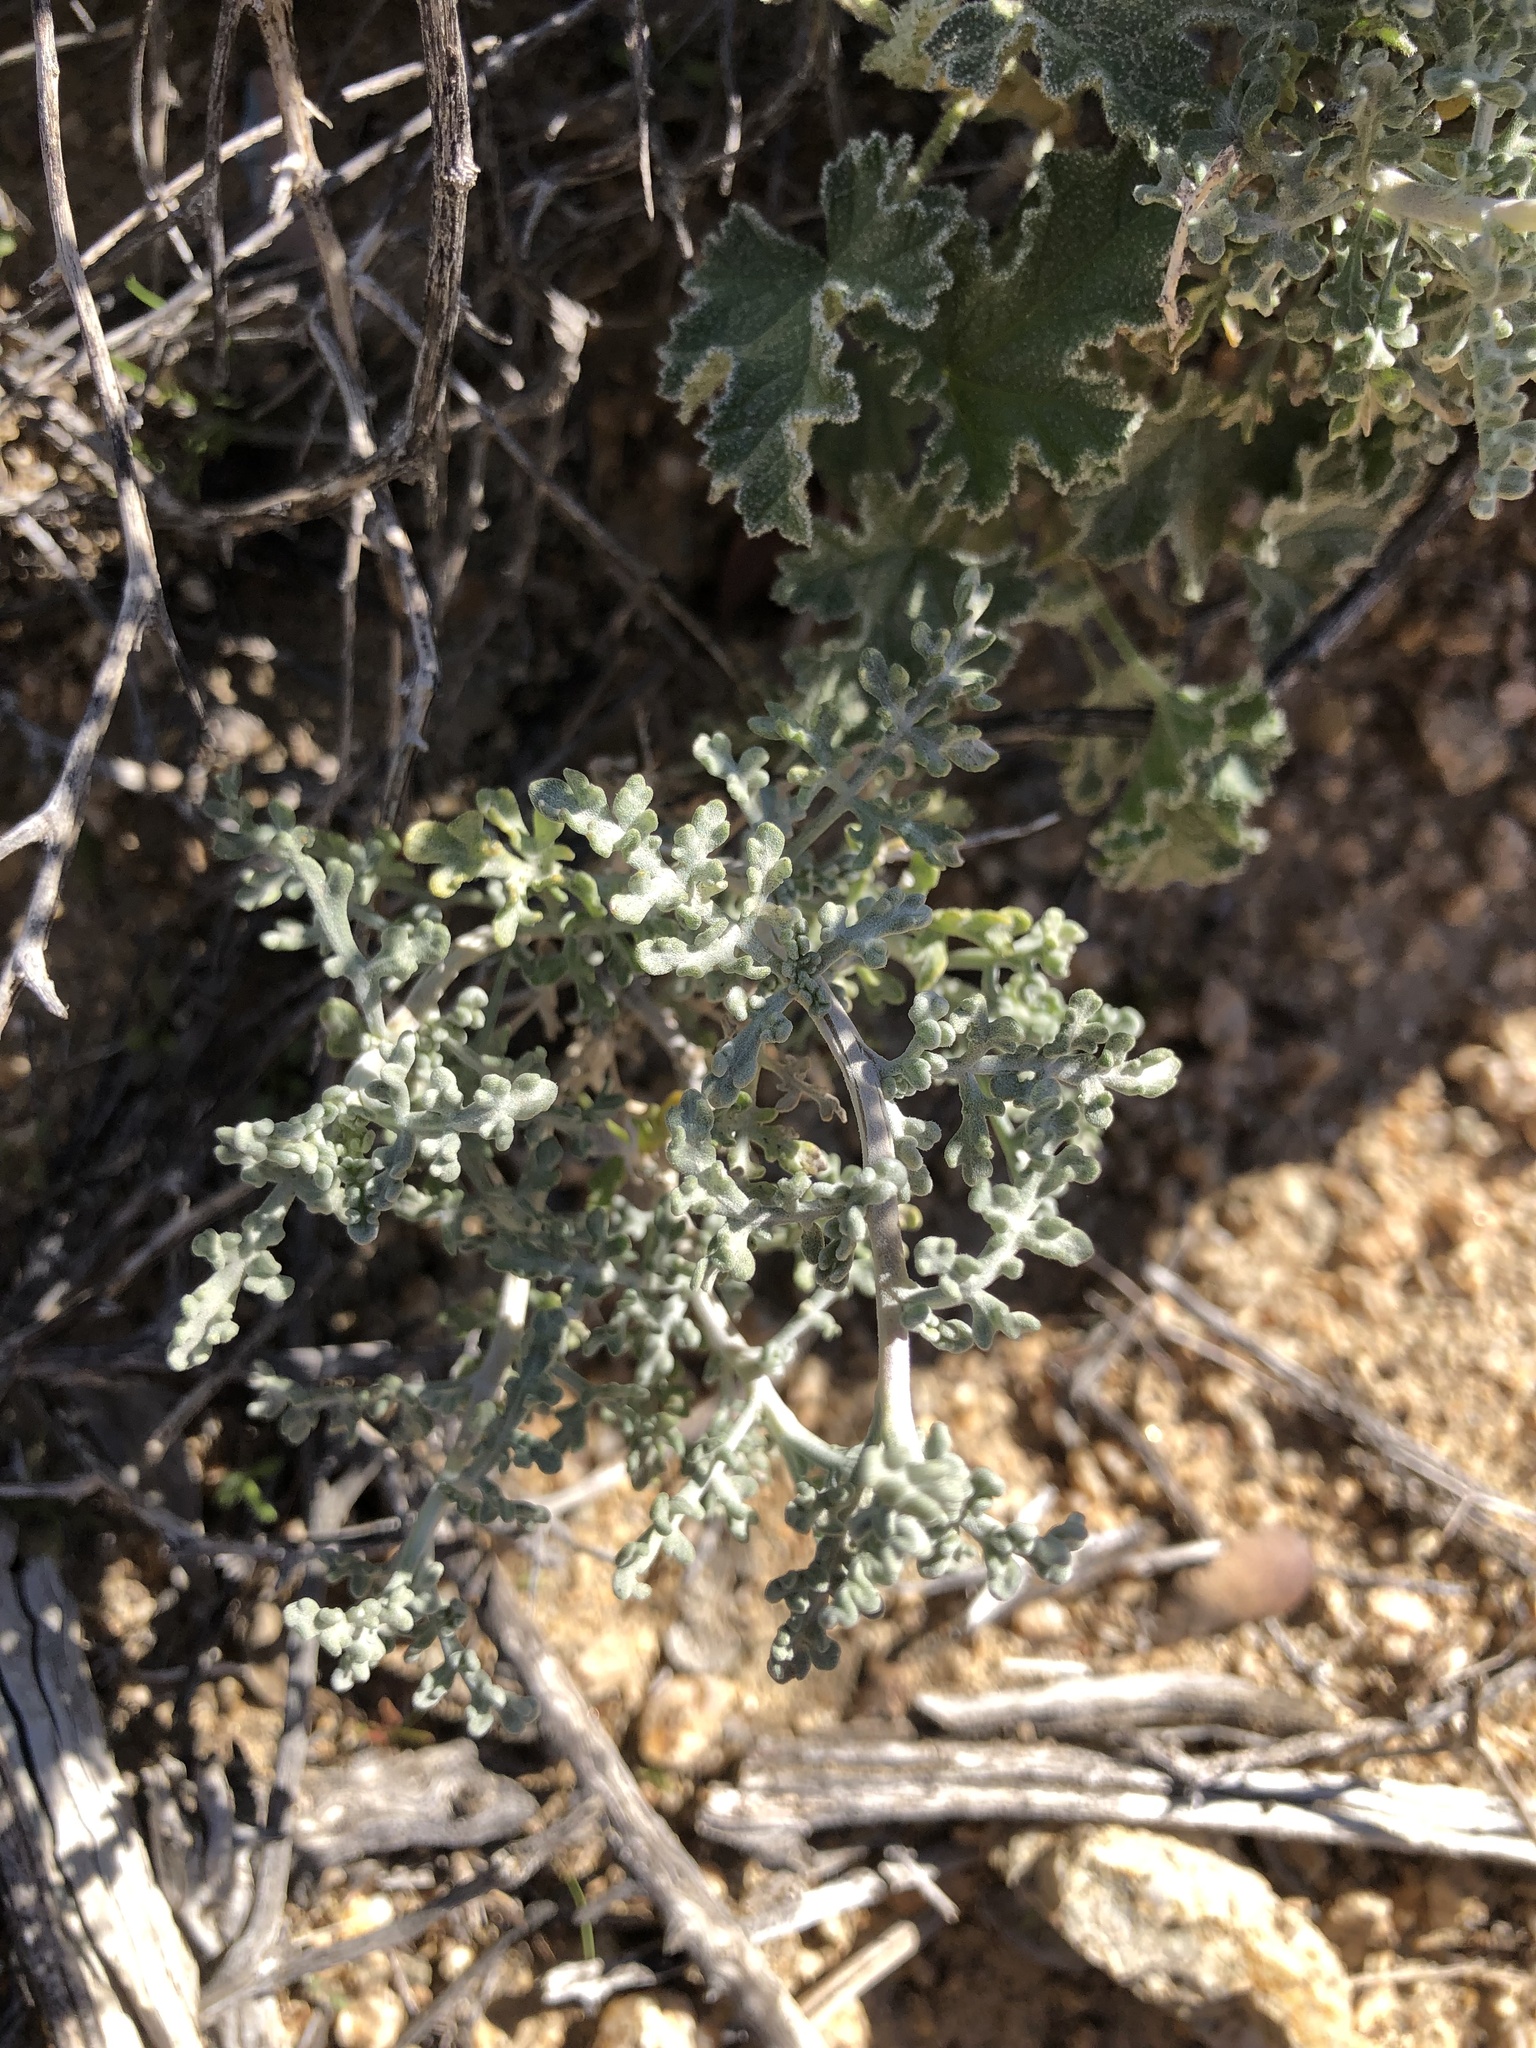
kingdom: Plantae
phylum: Tracheophyta
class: Magnoliopsida
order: Asterales
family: Asteraceae
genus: Ambrosia
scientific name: Ambrosia dumosa
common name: Bur-sage
